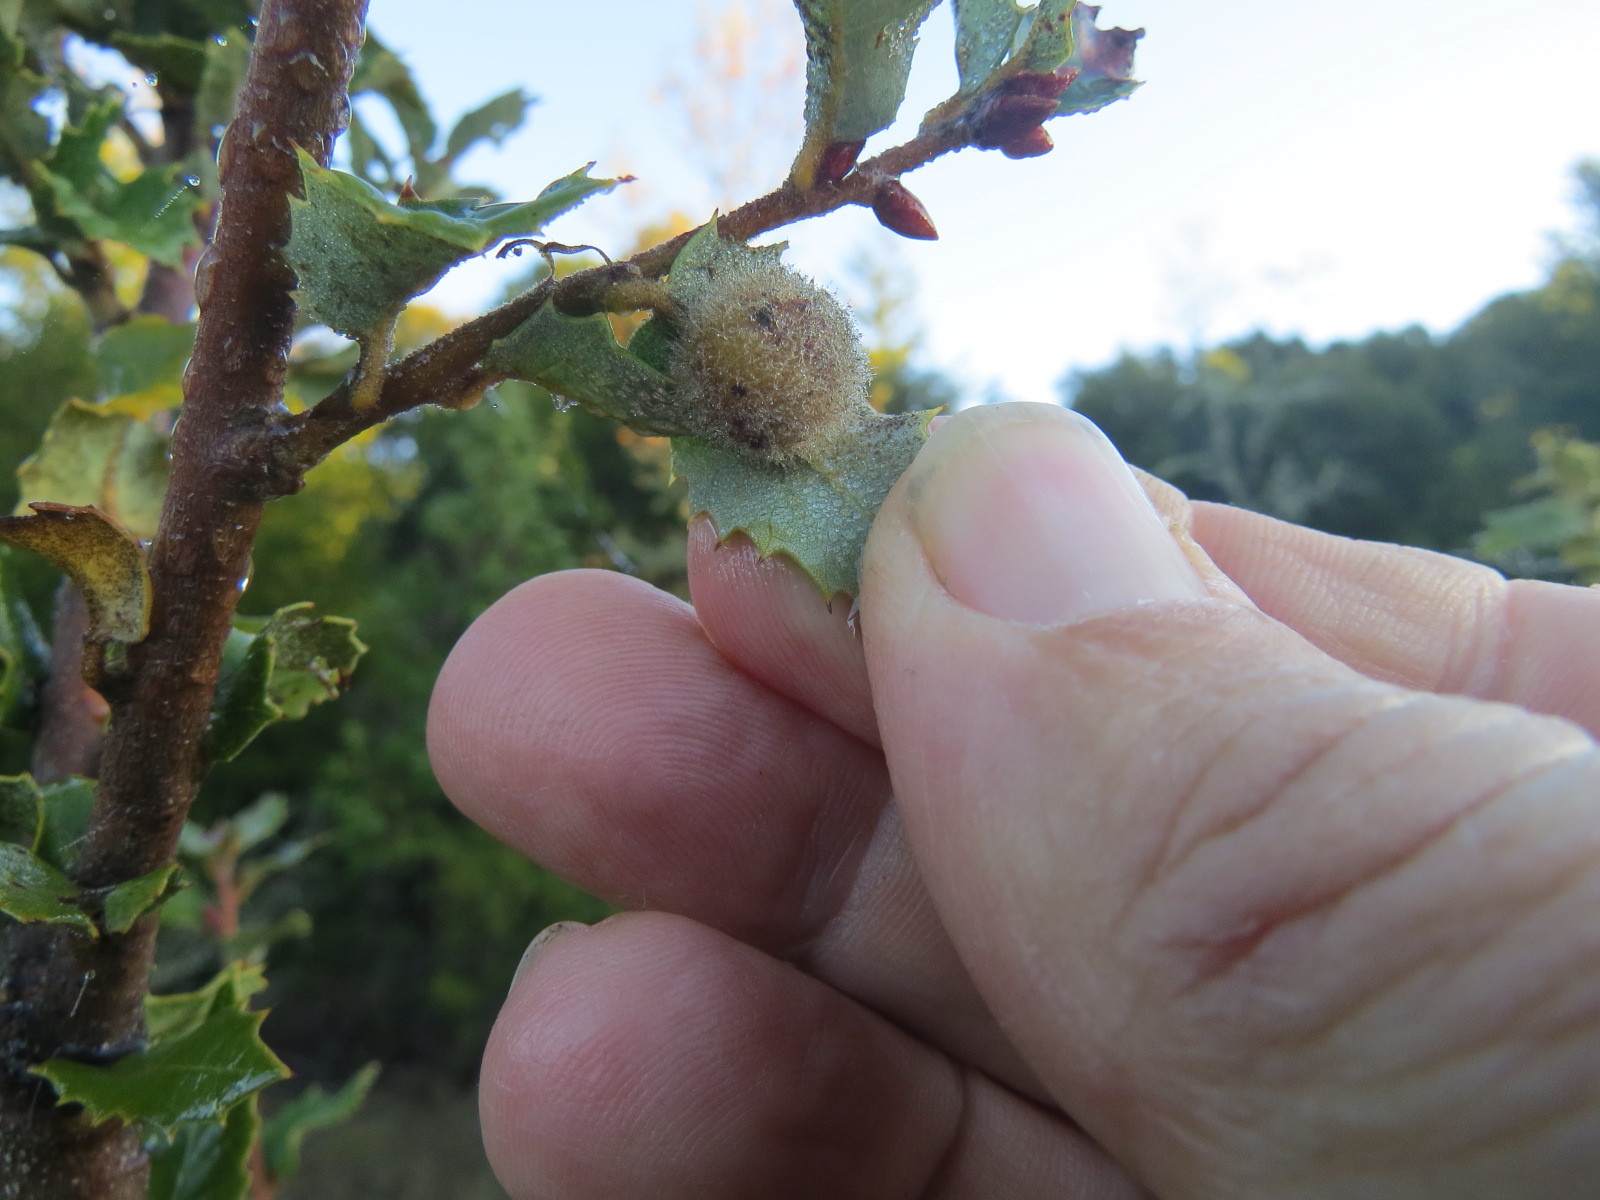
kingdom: Animalia
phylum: Arthropoda
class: Insecta
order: Hymenoptera
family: Cynipidae
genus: Disholandricus
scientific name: Disholandricus
